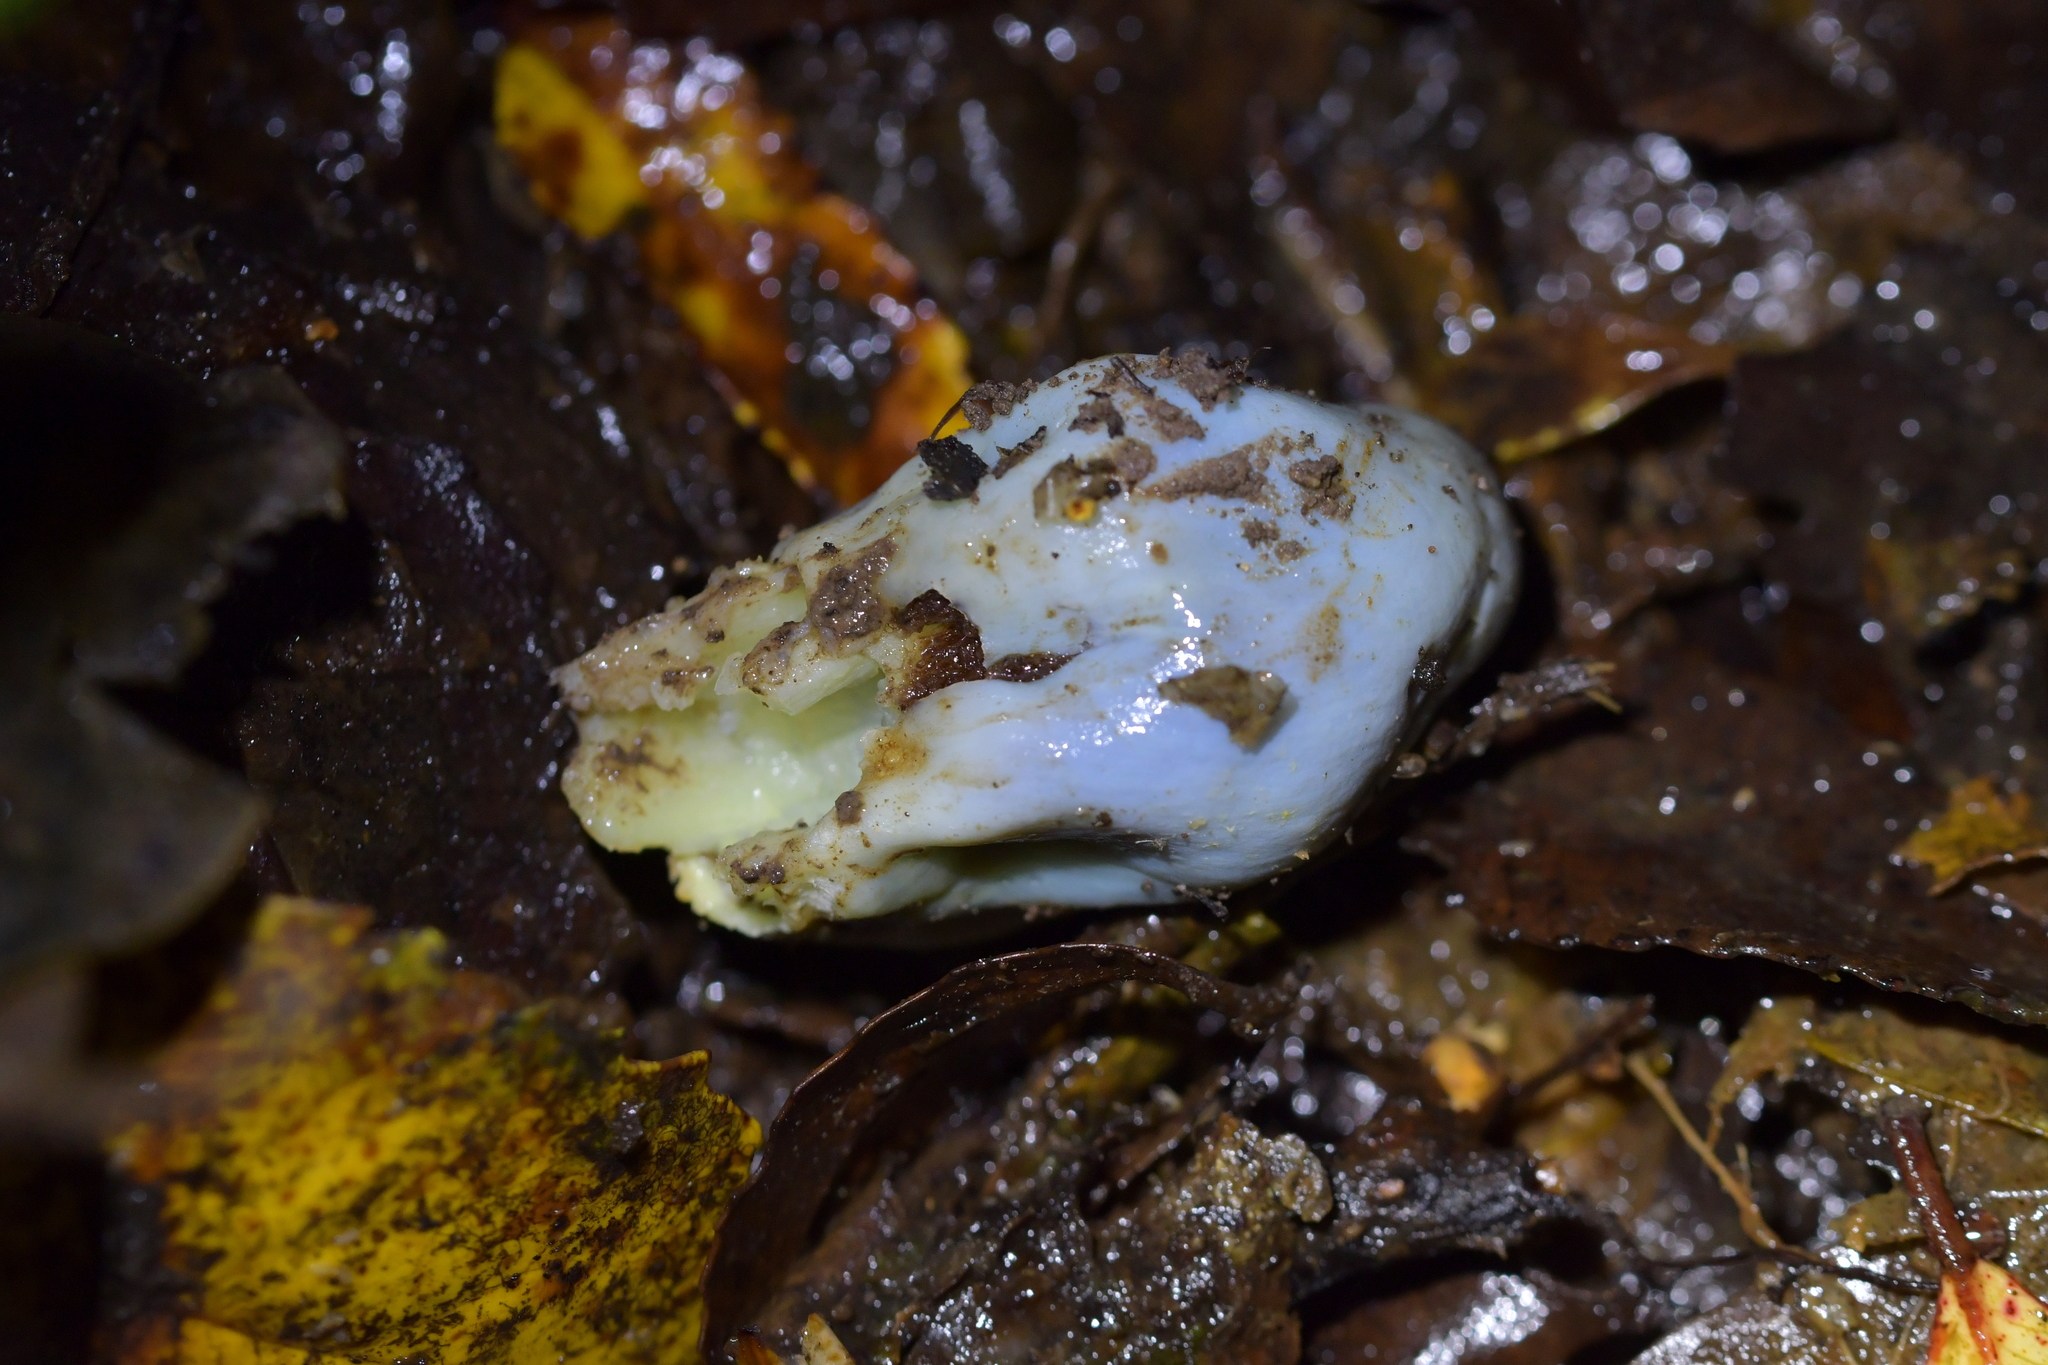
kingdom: Fungi
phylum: Basidiomycota
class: Agaricomycetes
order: Agaricales
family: Agaricaceae
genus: Clavogaster
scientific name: Clavogaster virescens
